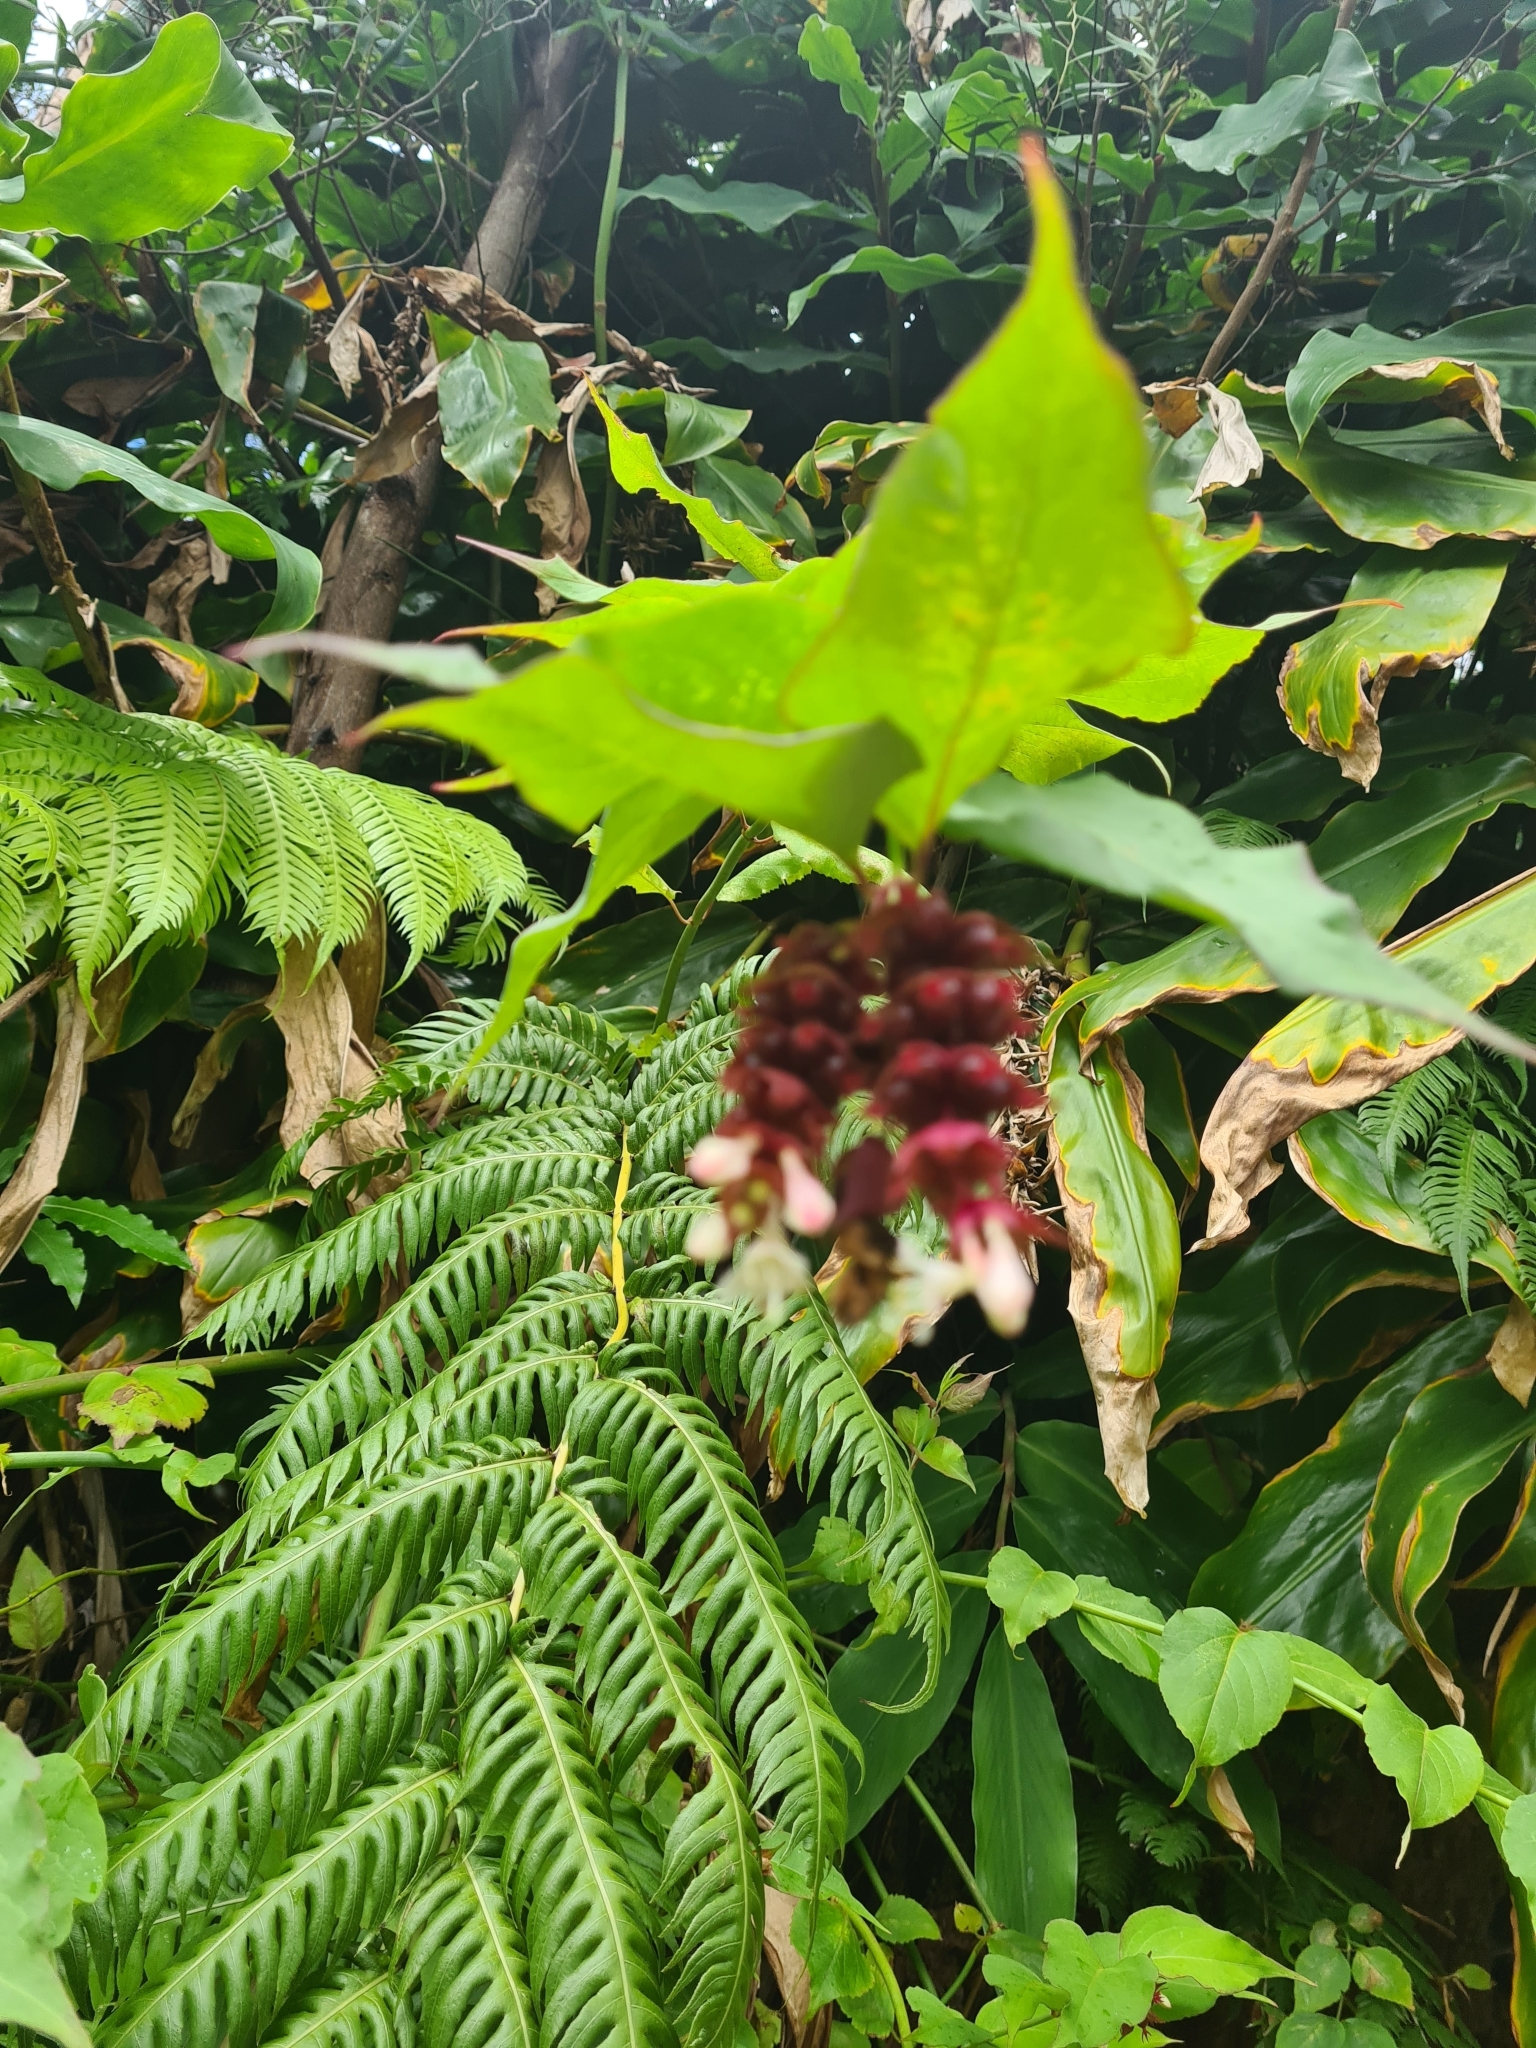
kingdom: Plantae
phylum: Tracheophyta
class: Magnoliopsida
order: Dipsacales
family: Caprifoliaceae
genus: Leycesteria
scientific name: Leycesteria formosa
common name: Himalayan honeysuckle
